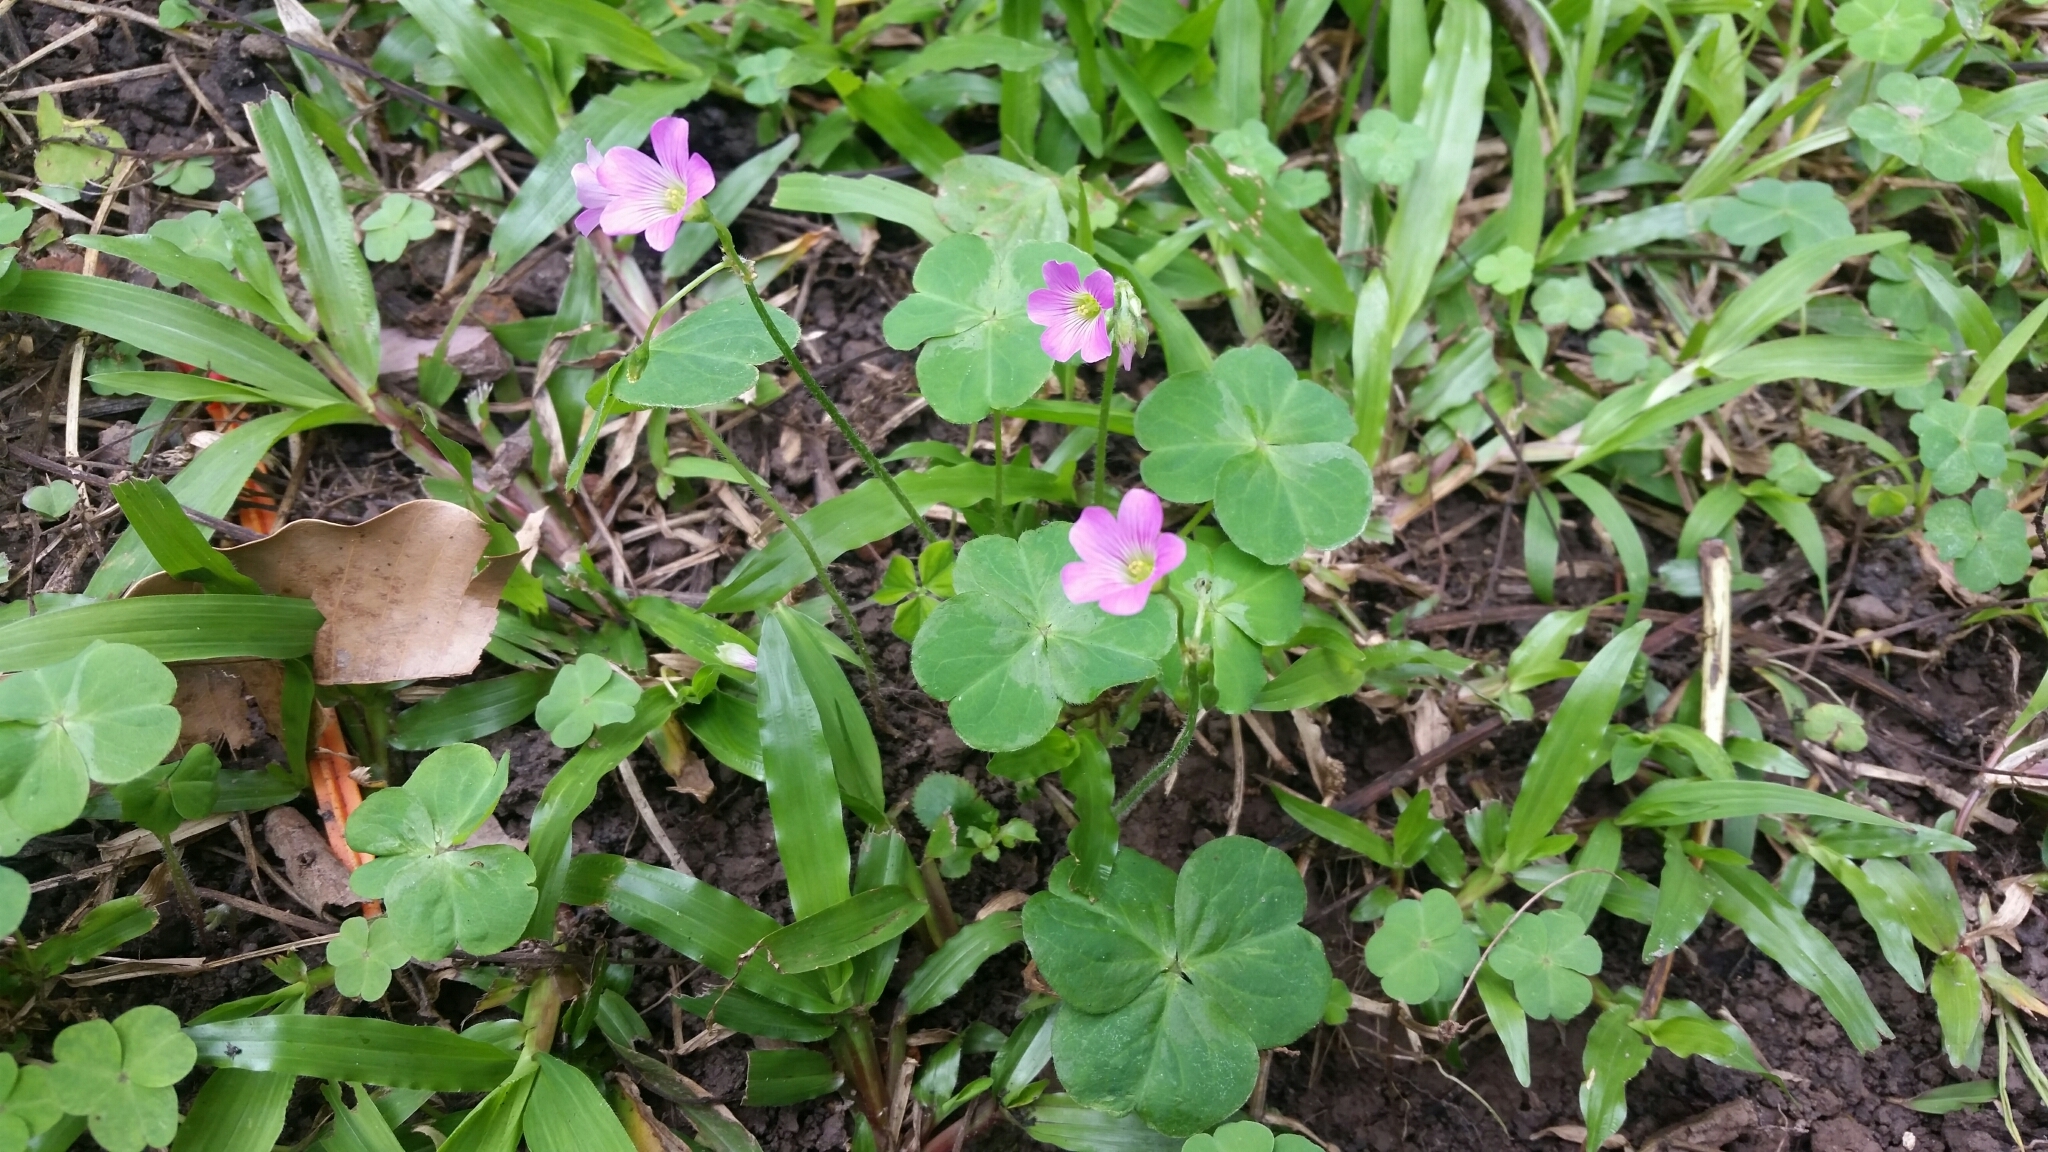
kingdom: Plantae
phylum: Tracheophyta
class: Magnoliopsida
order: Oxalidales
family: Oxalidaceae
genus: Oxalis
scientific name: Oxalis debilis
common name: Large-flowered pink-sorrel
